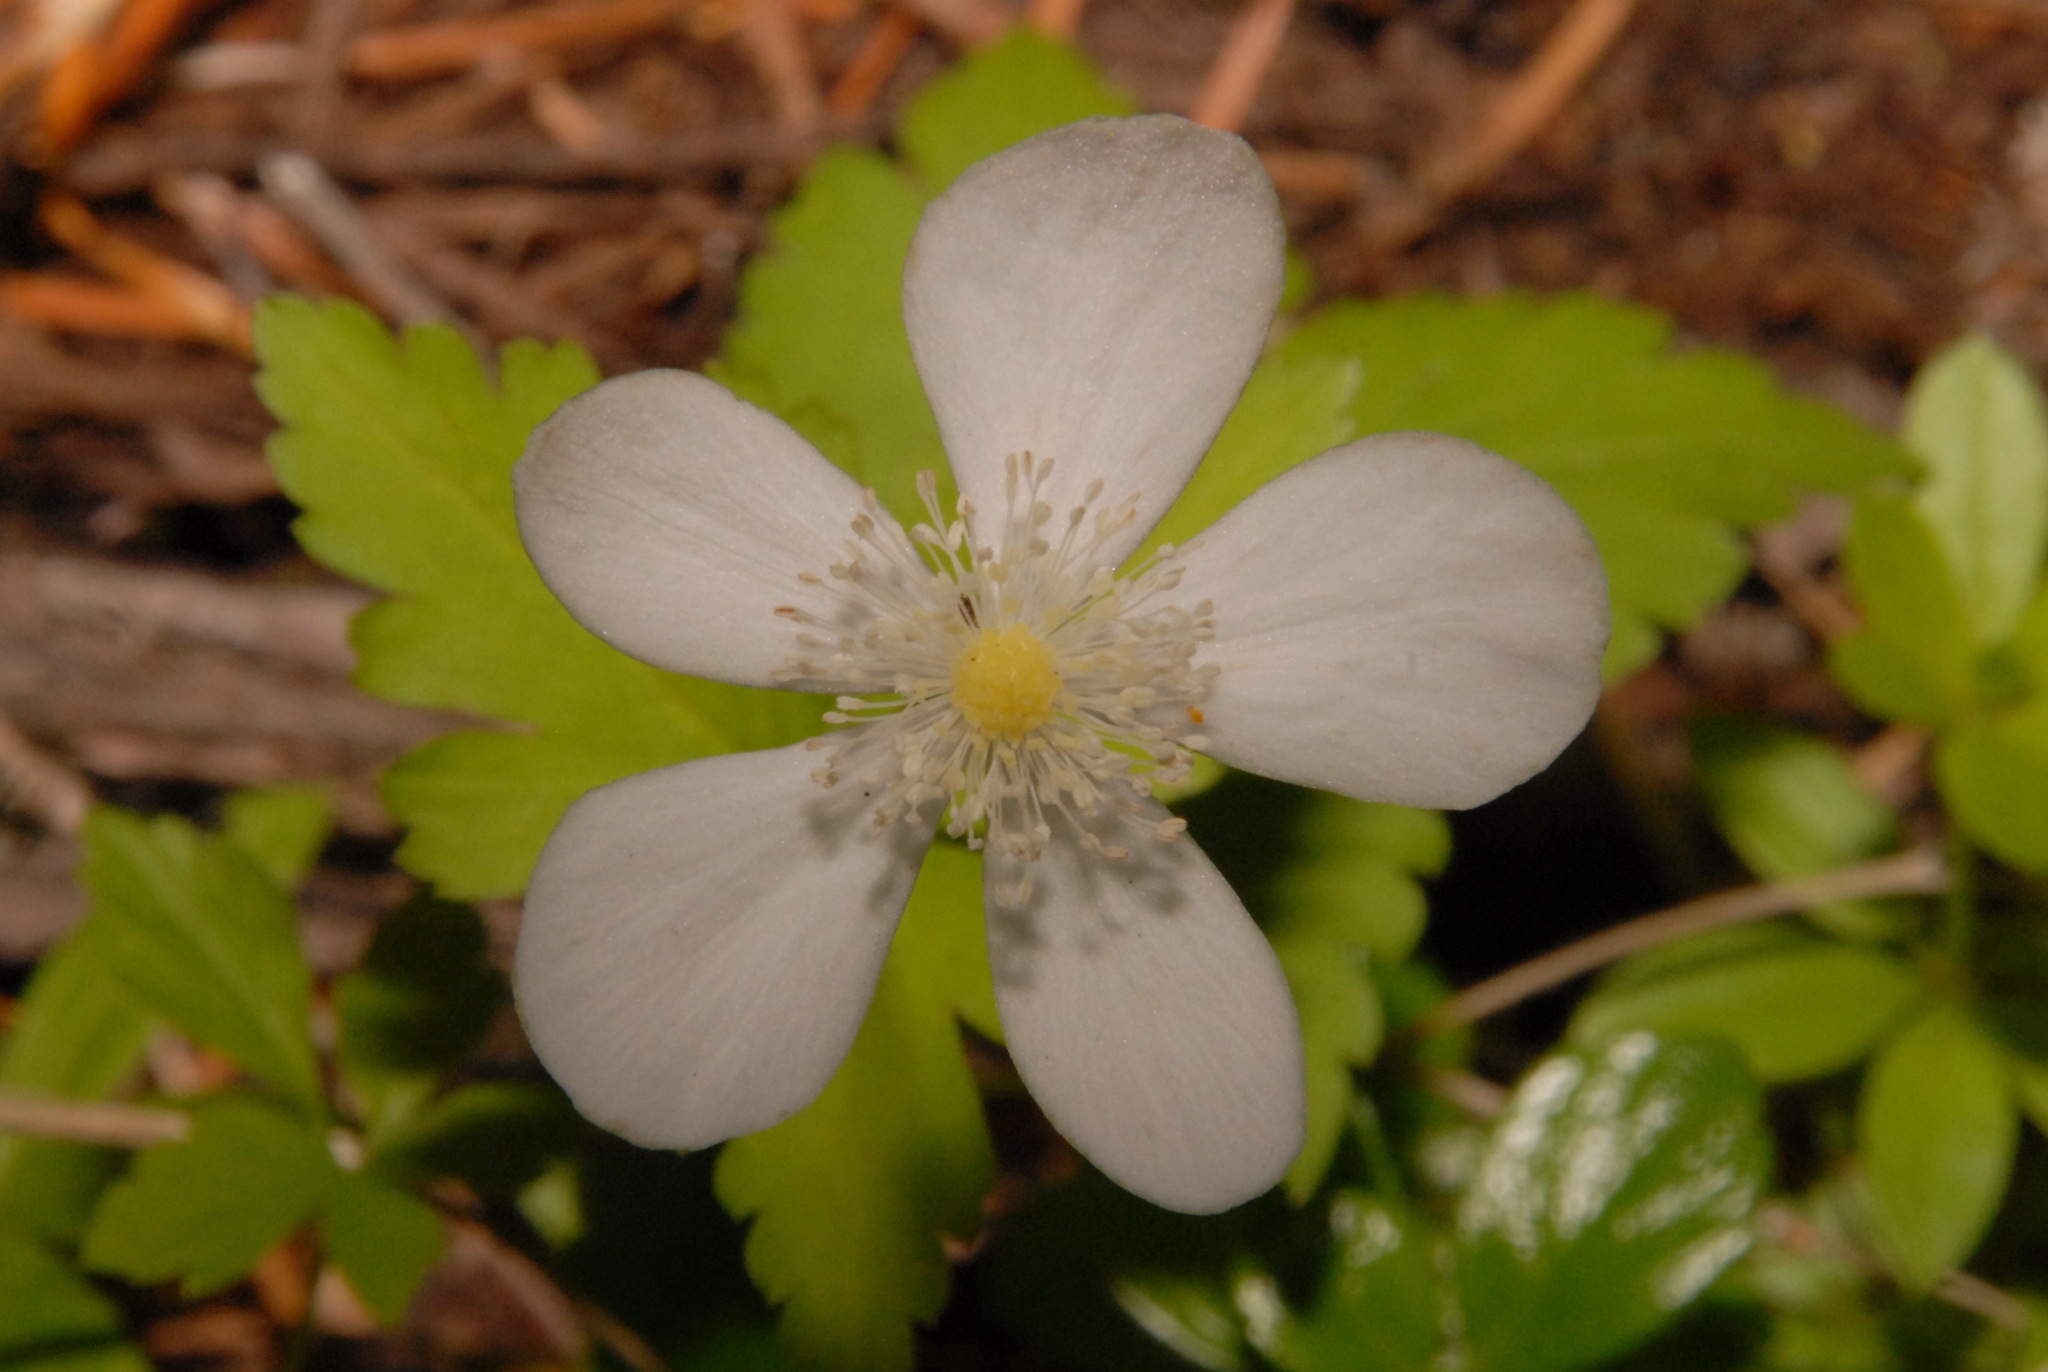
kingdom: Plantae
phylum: Tracheophyta
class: Magnoliopsida
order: Ranunculales
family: Ranunculaceae
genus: Anemonastrum
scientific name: Anemonastrum deltoideum
